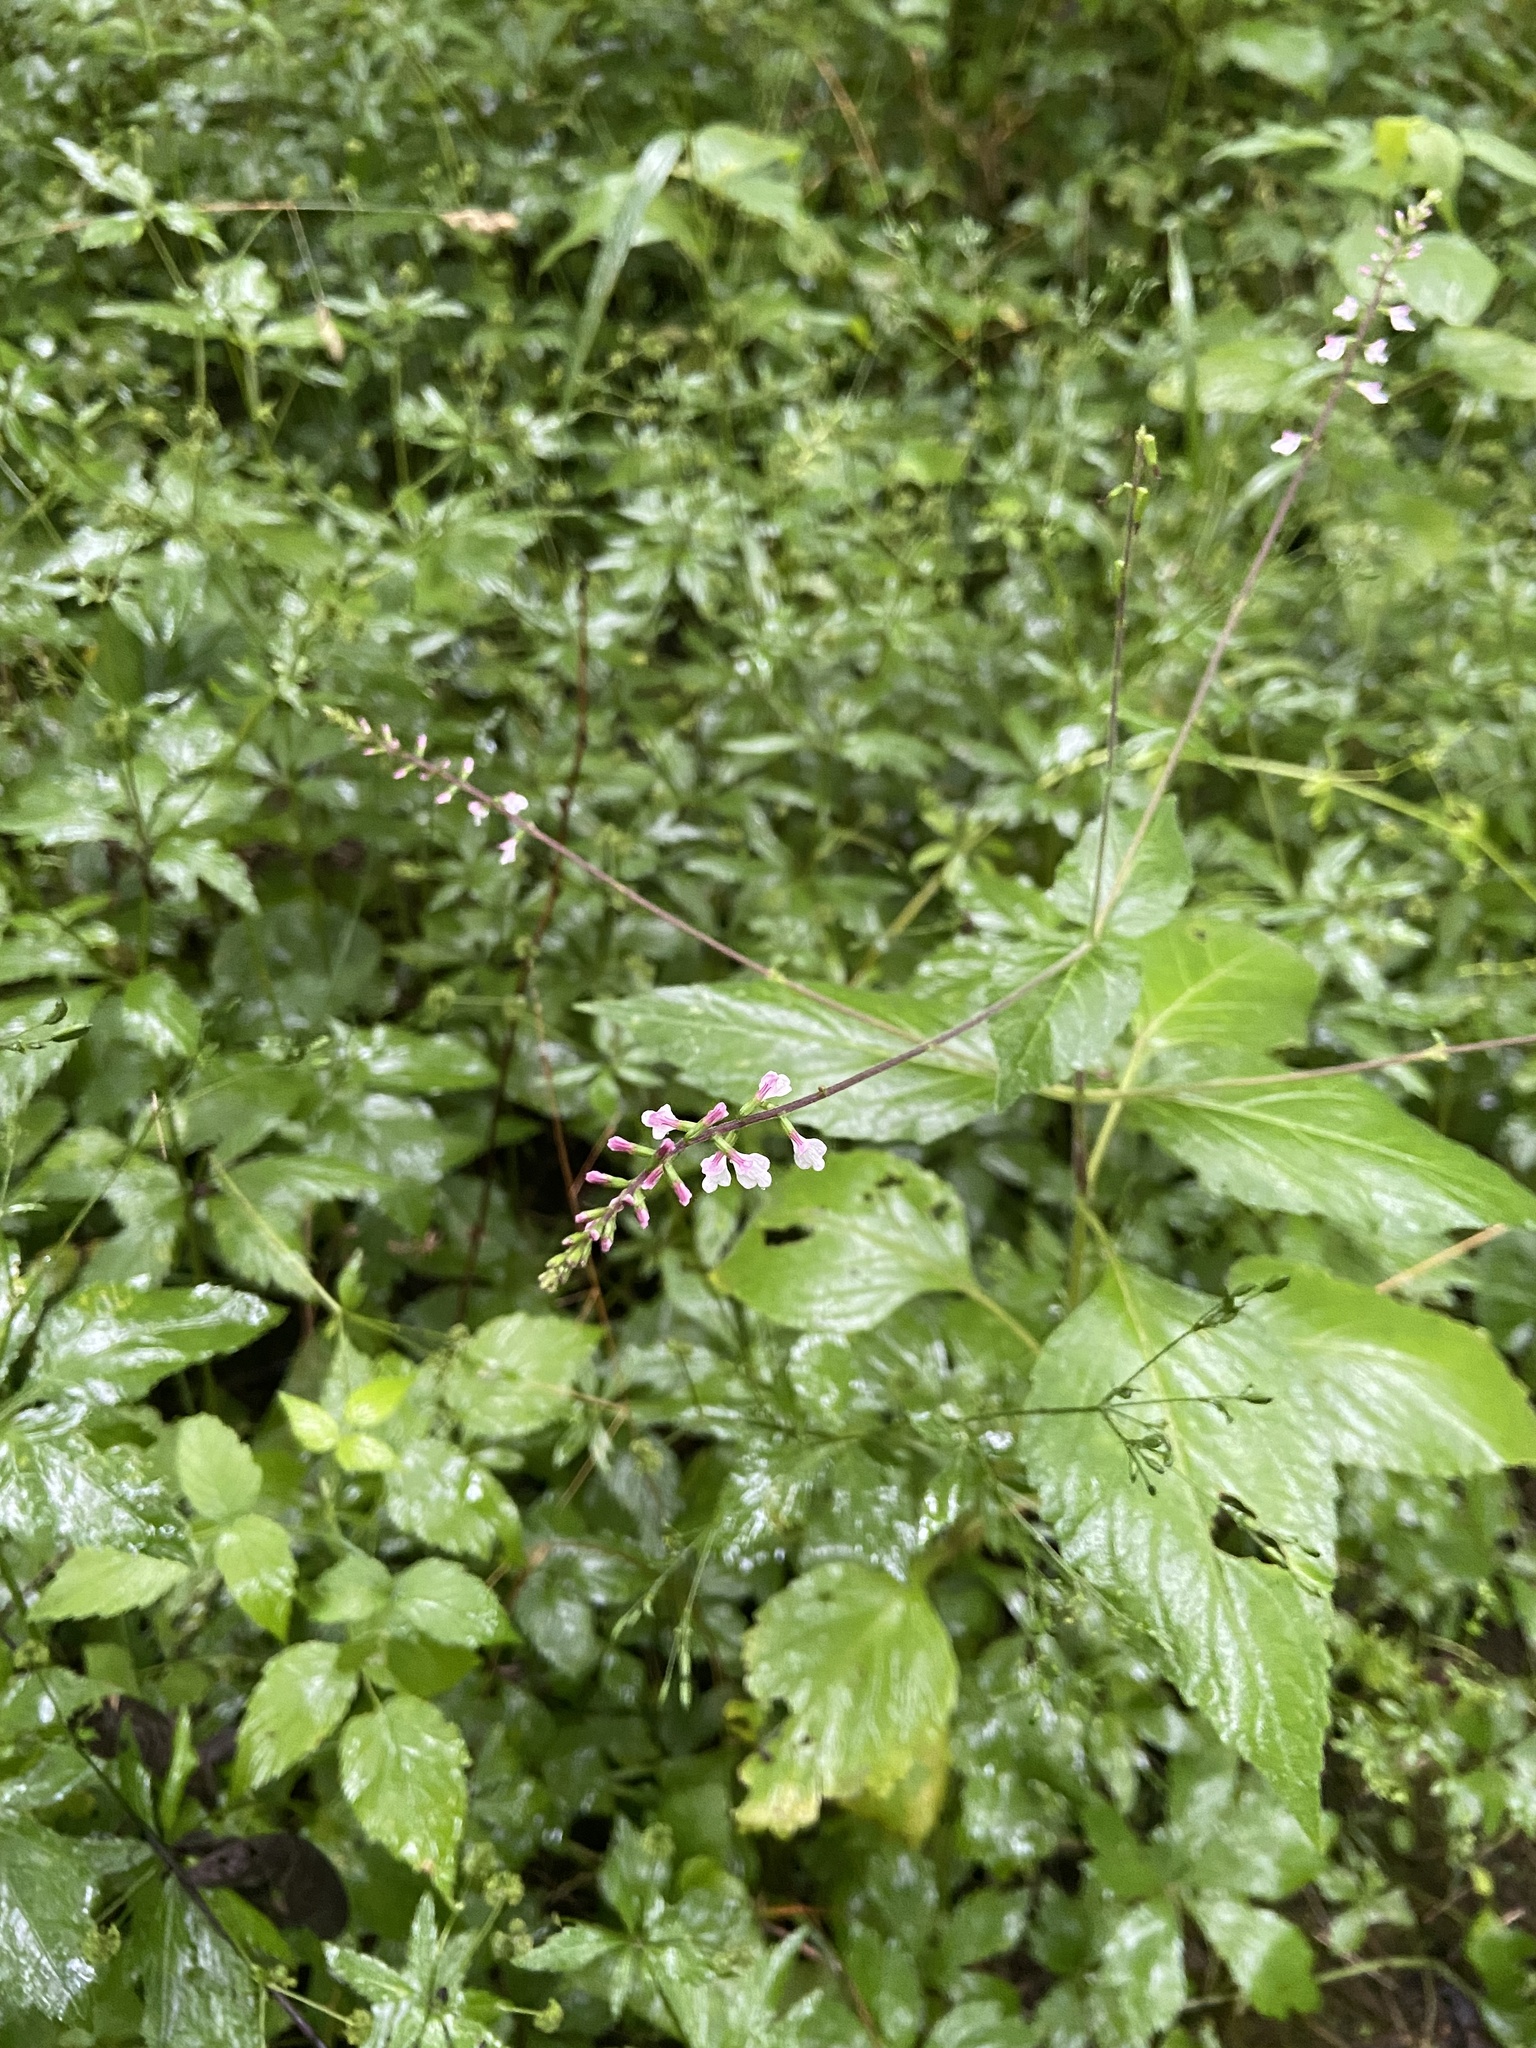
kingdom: Plantae
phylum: Tracheophyta
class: Magnoliopsida
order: Lamiales
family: Phrymaceae
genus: Phryma
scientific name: Phryma leptostachya
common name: American lopseed
